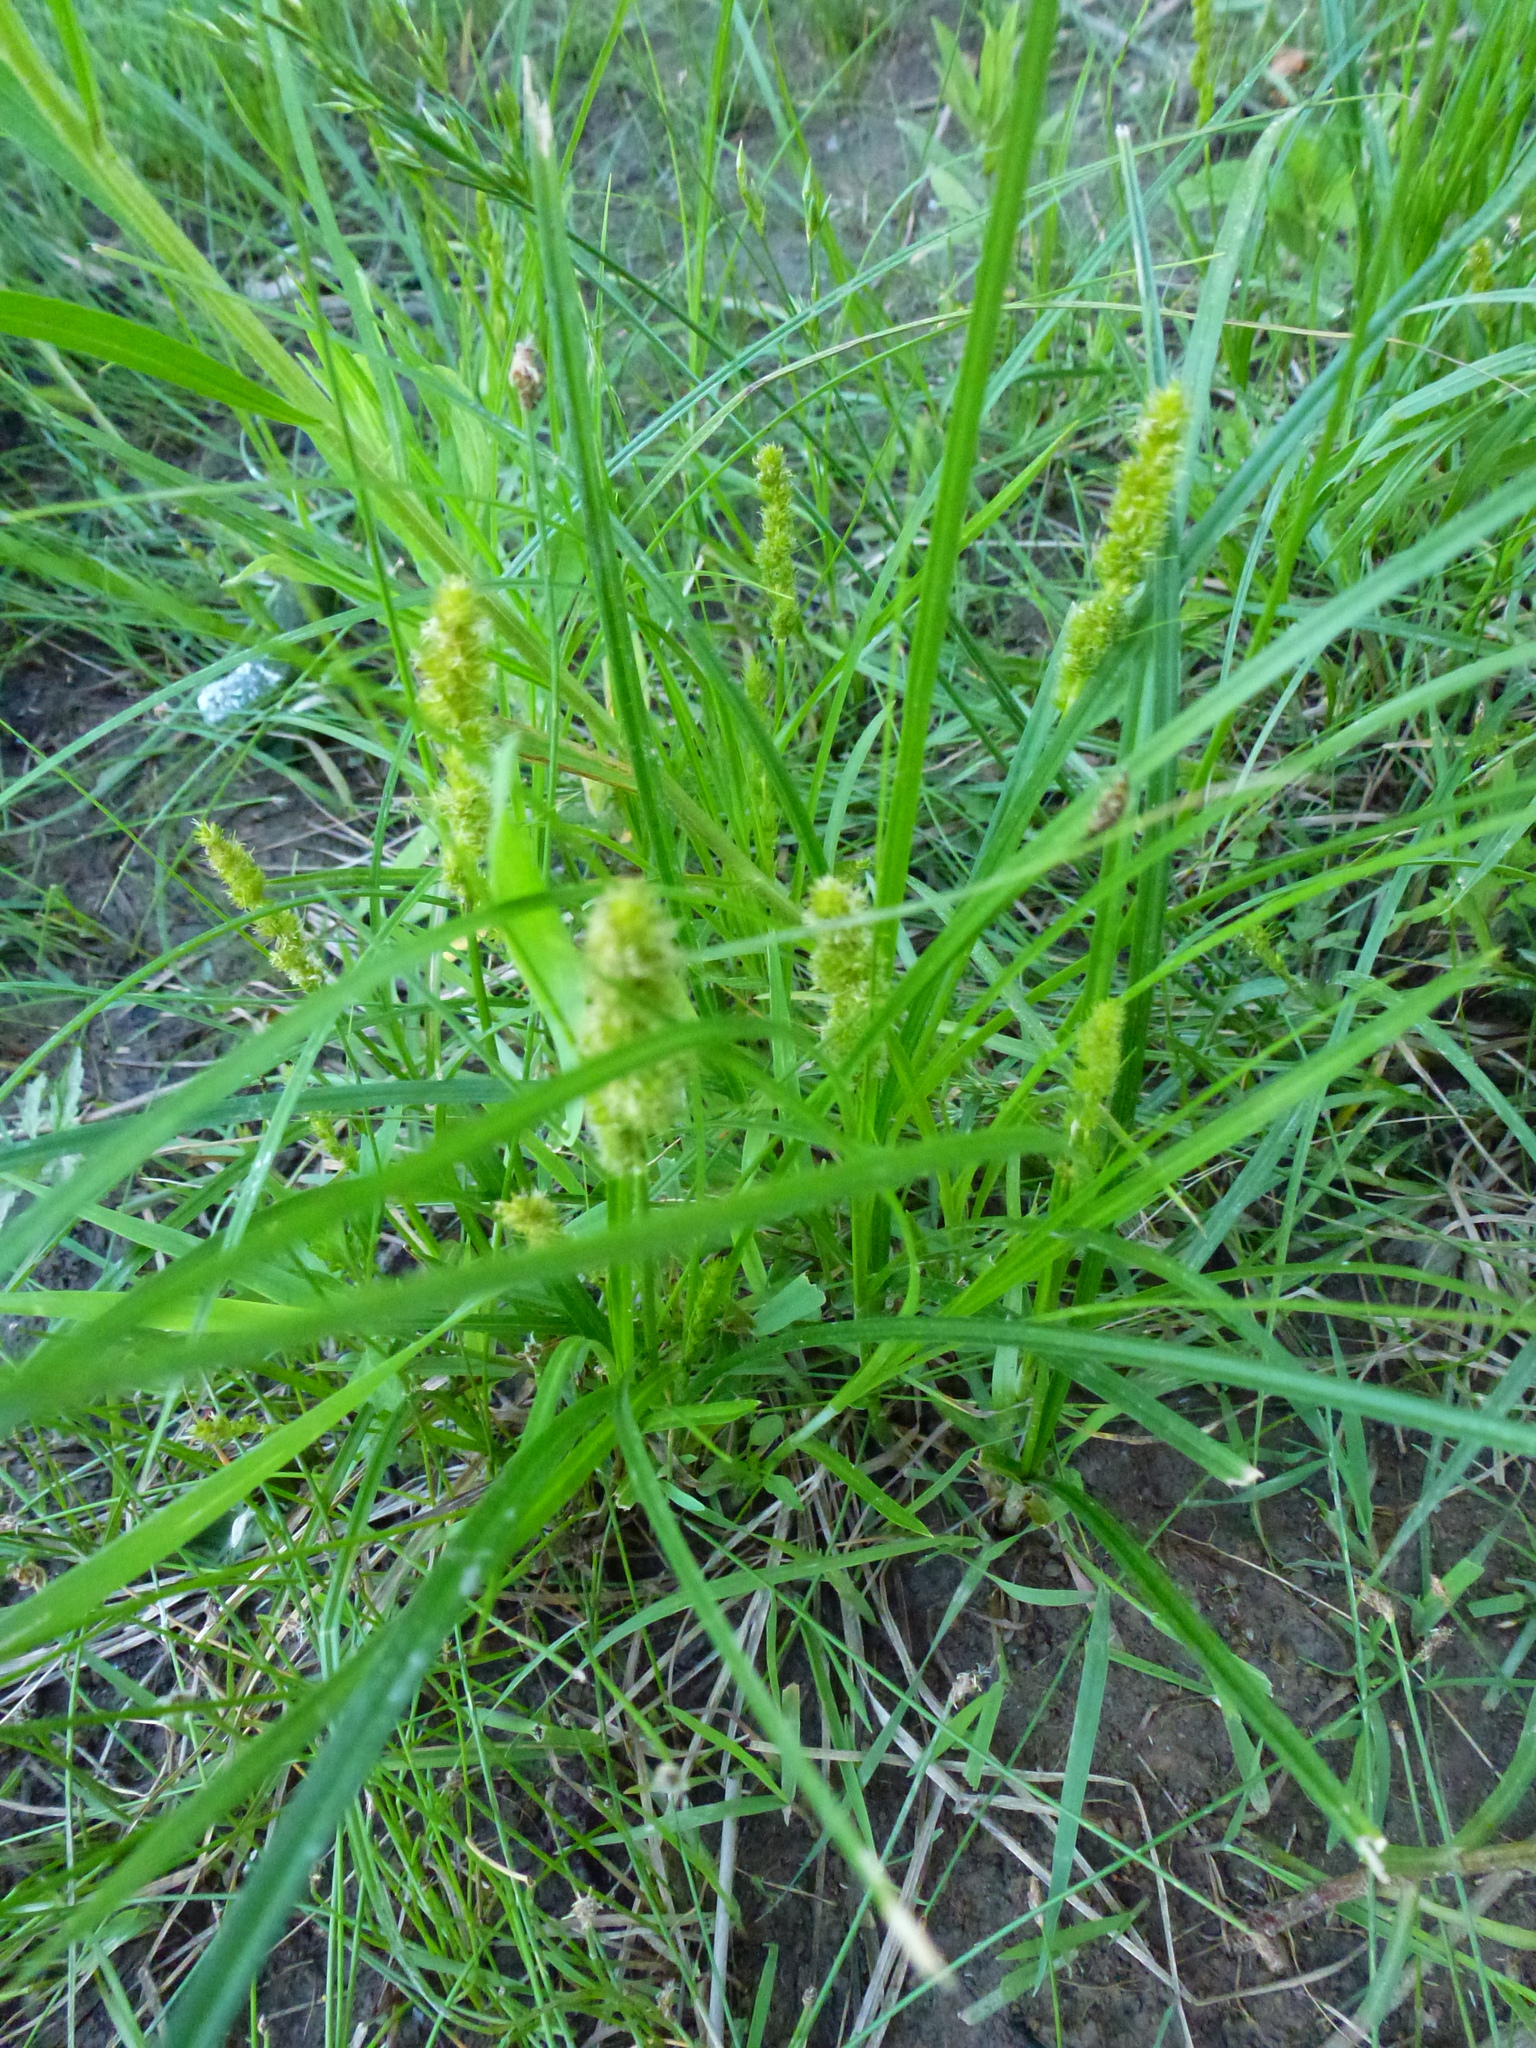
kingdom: Plantae
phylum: Tracheophyta
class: Liliopsida
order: Poales
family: Cyperaceae
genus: Carex
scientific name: Carex vulpinoidea
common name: American fox-sedge
